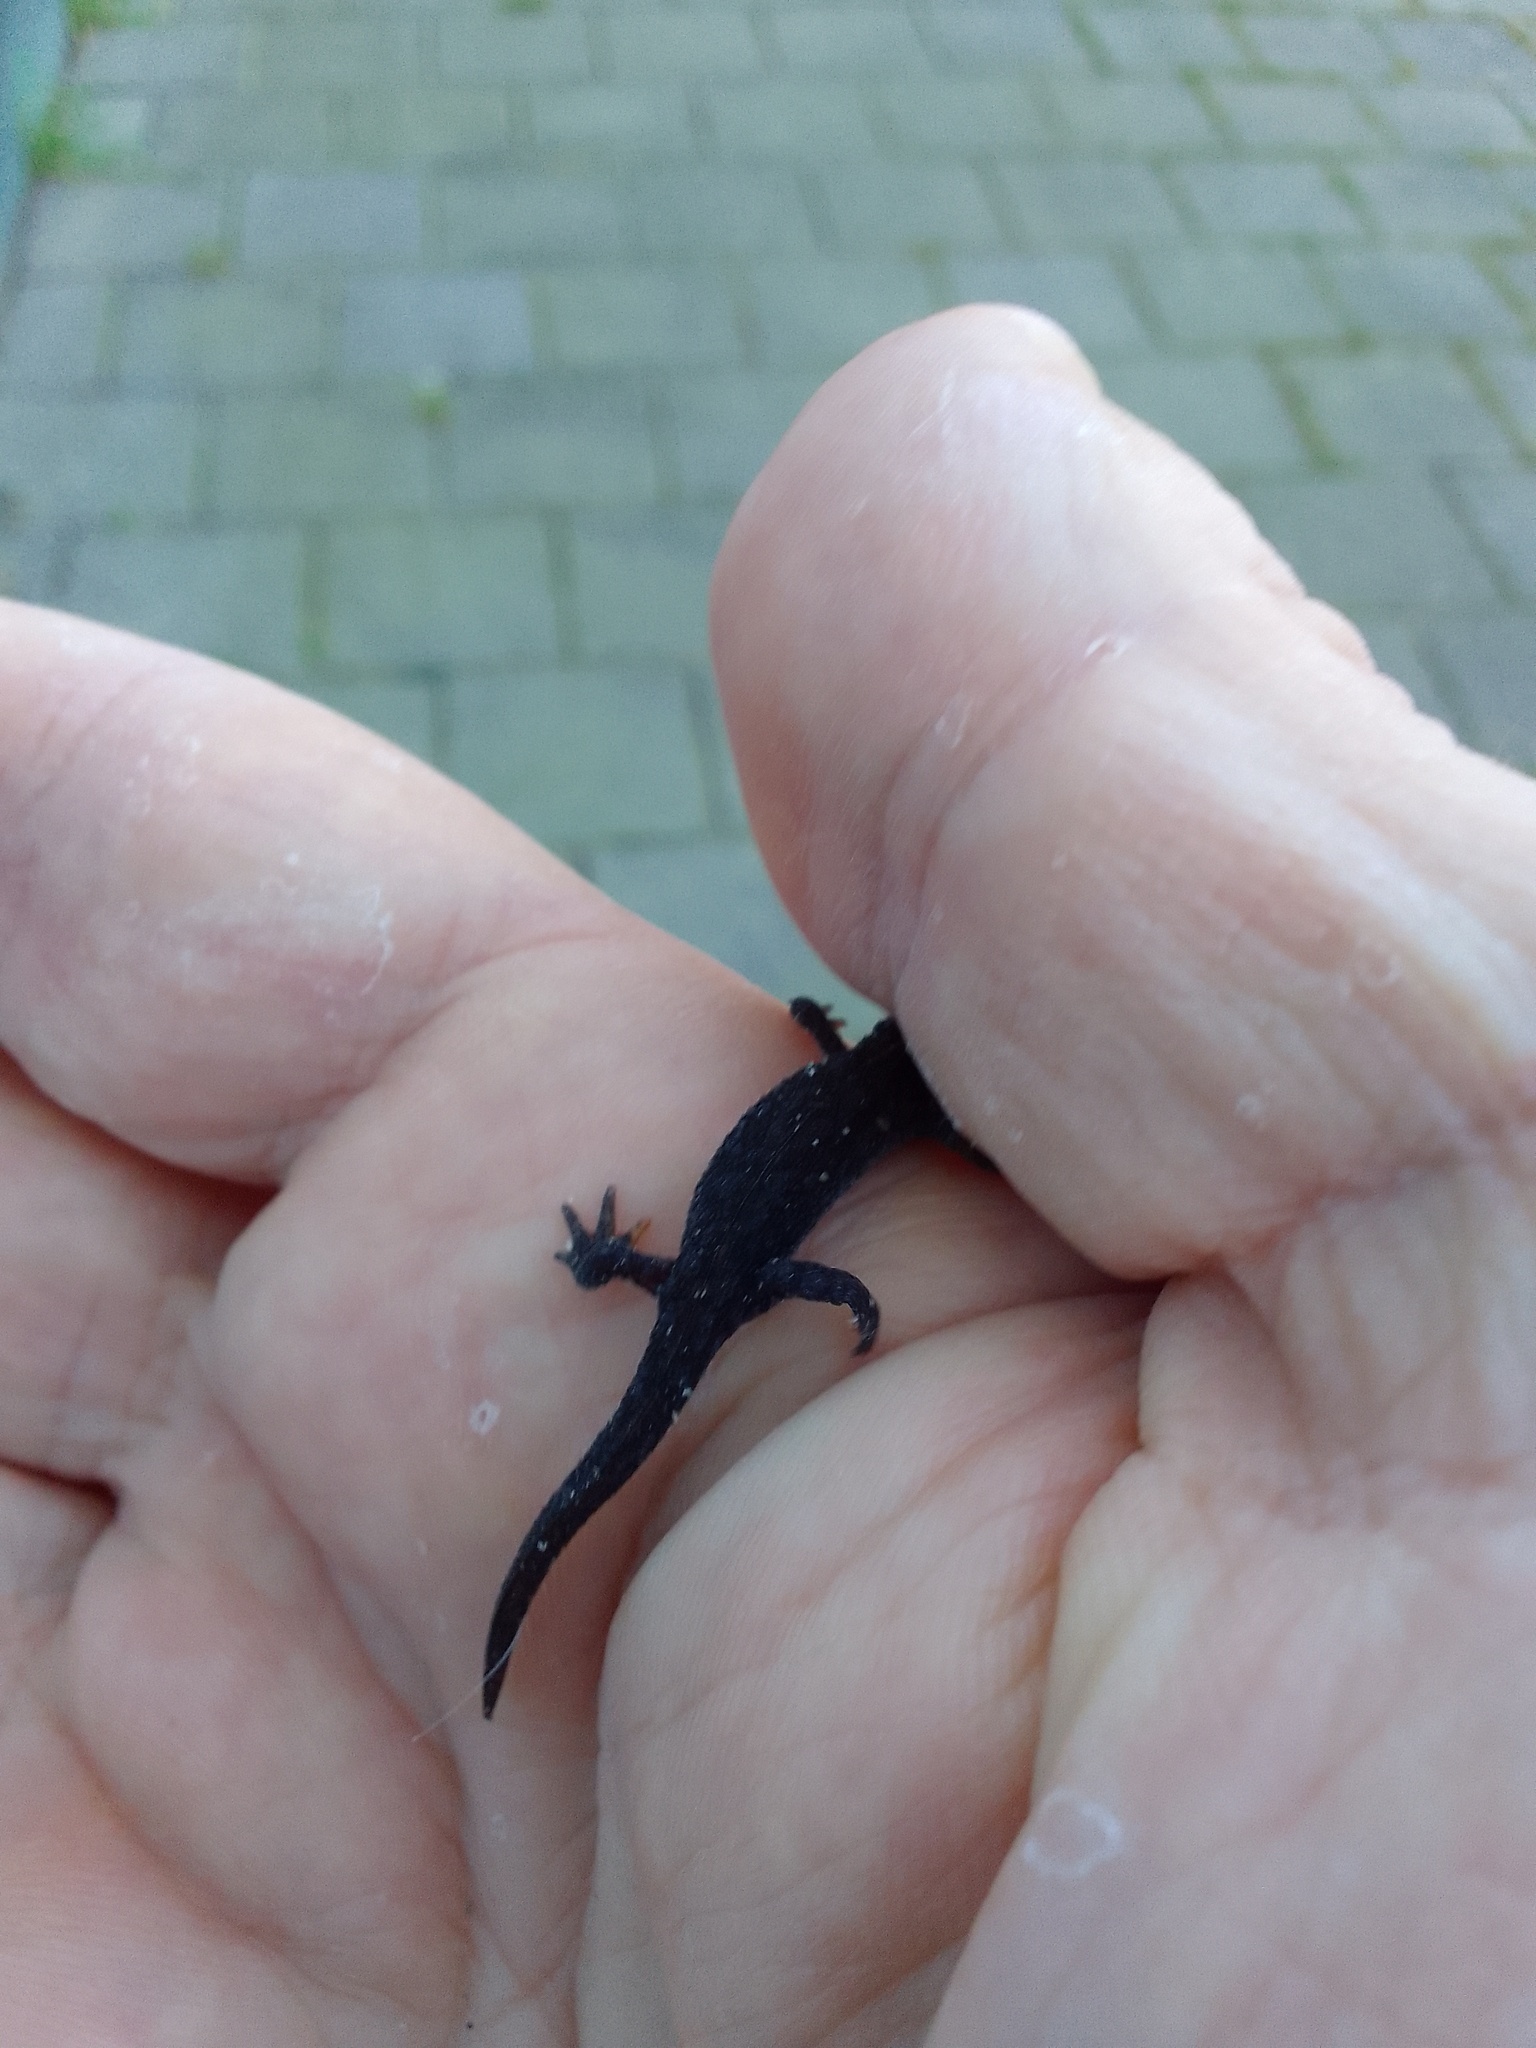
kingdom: Animalia
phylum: Chordata
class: Amphibia
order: Caudata
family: Salamandridae
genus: Ichthyosaura
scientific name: Ichthyosaura alpestris
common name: Alpine newt
